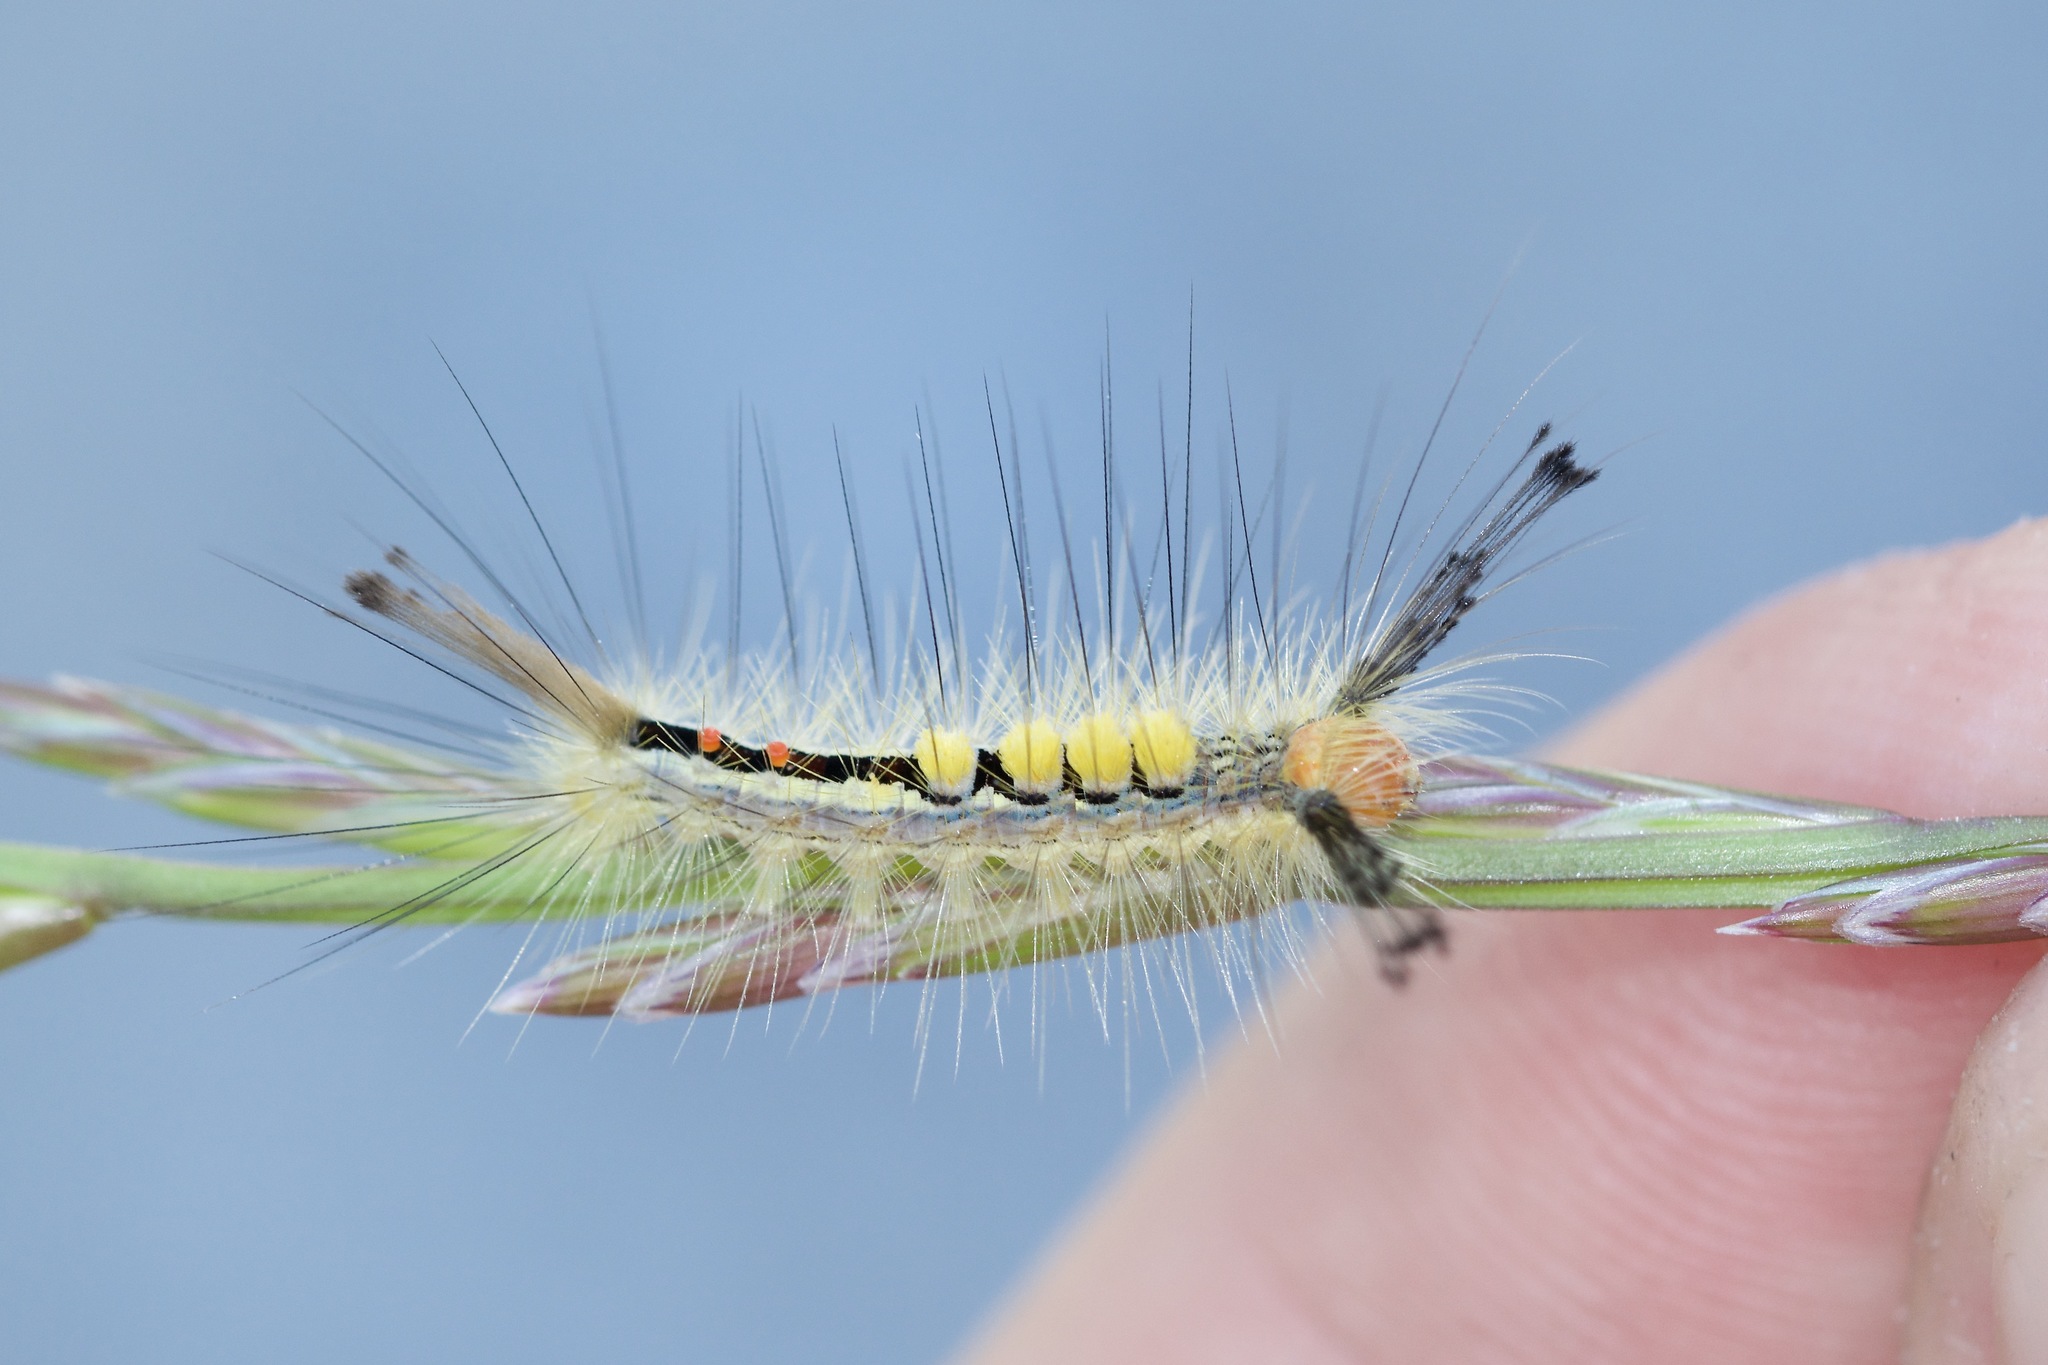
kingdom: Animalia
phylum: Arthropoda
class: Insecta
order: Lepidoptera
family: Erebidae
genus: Orgyia
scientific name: Orgyia leucostigma
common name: White-marked tussock moth
